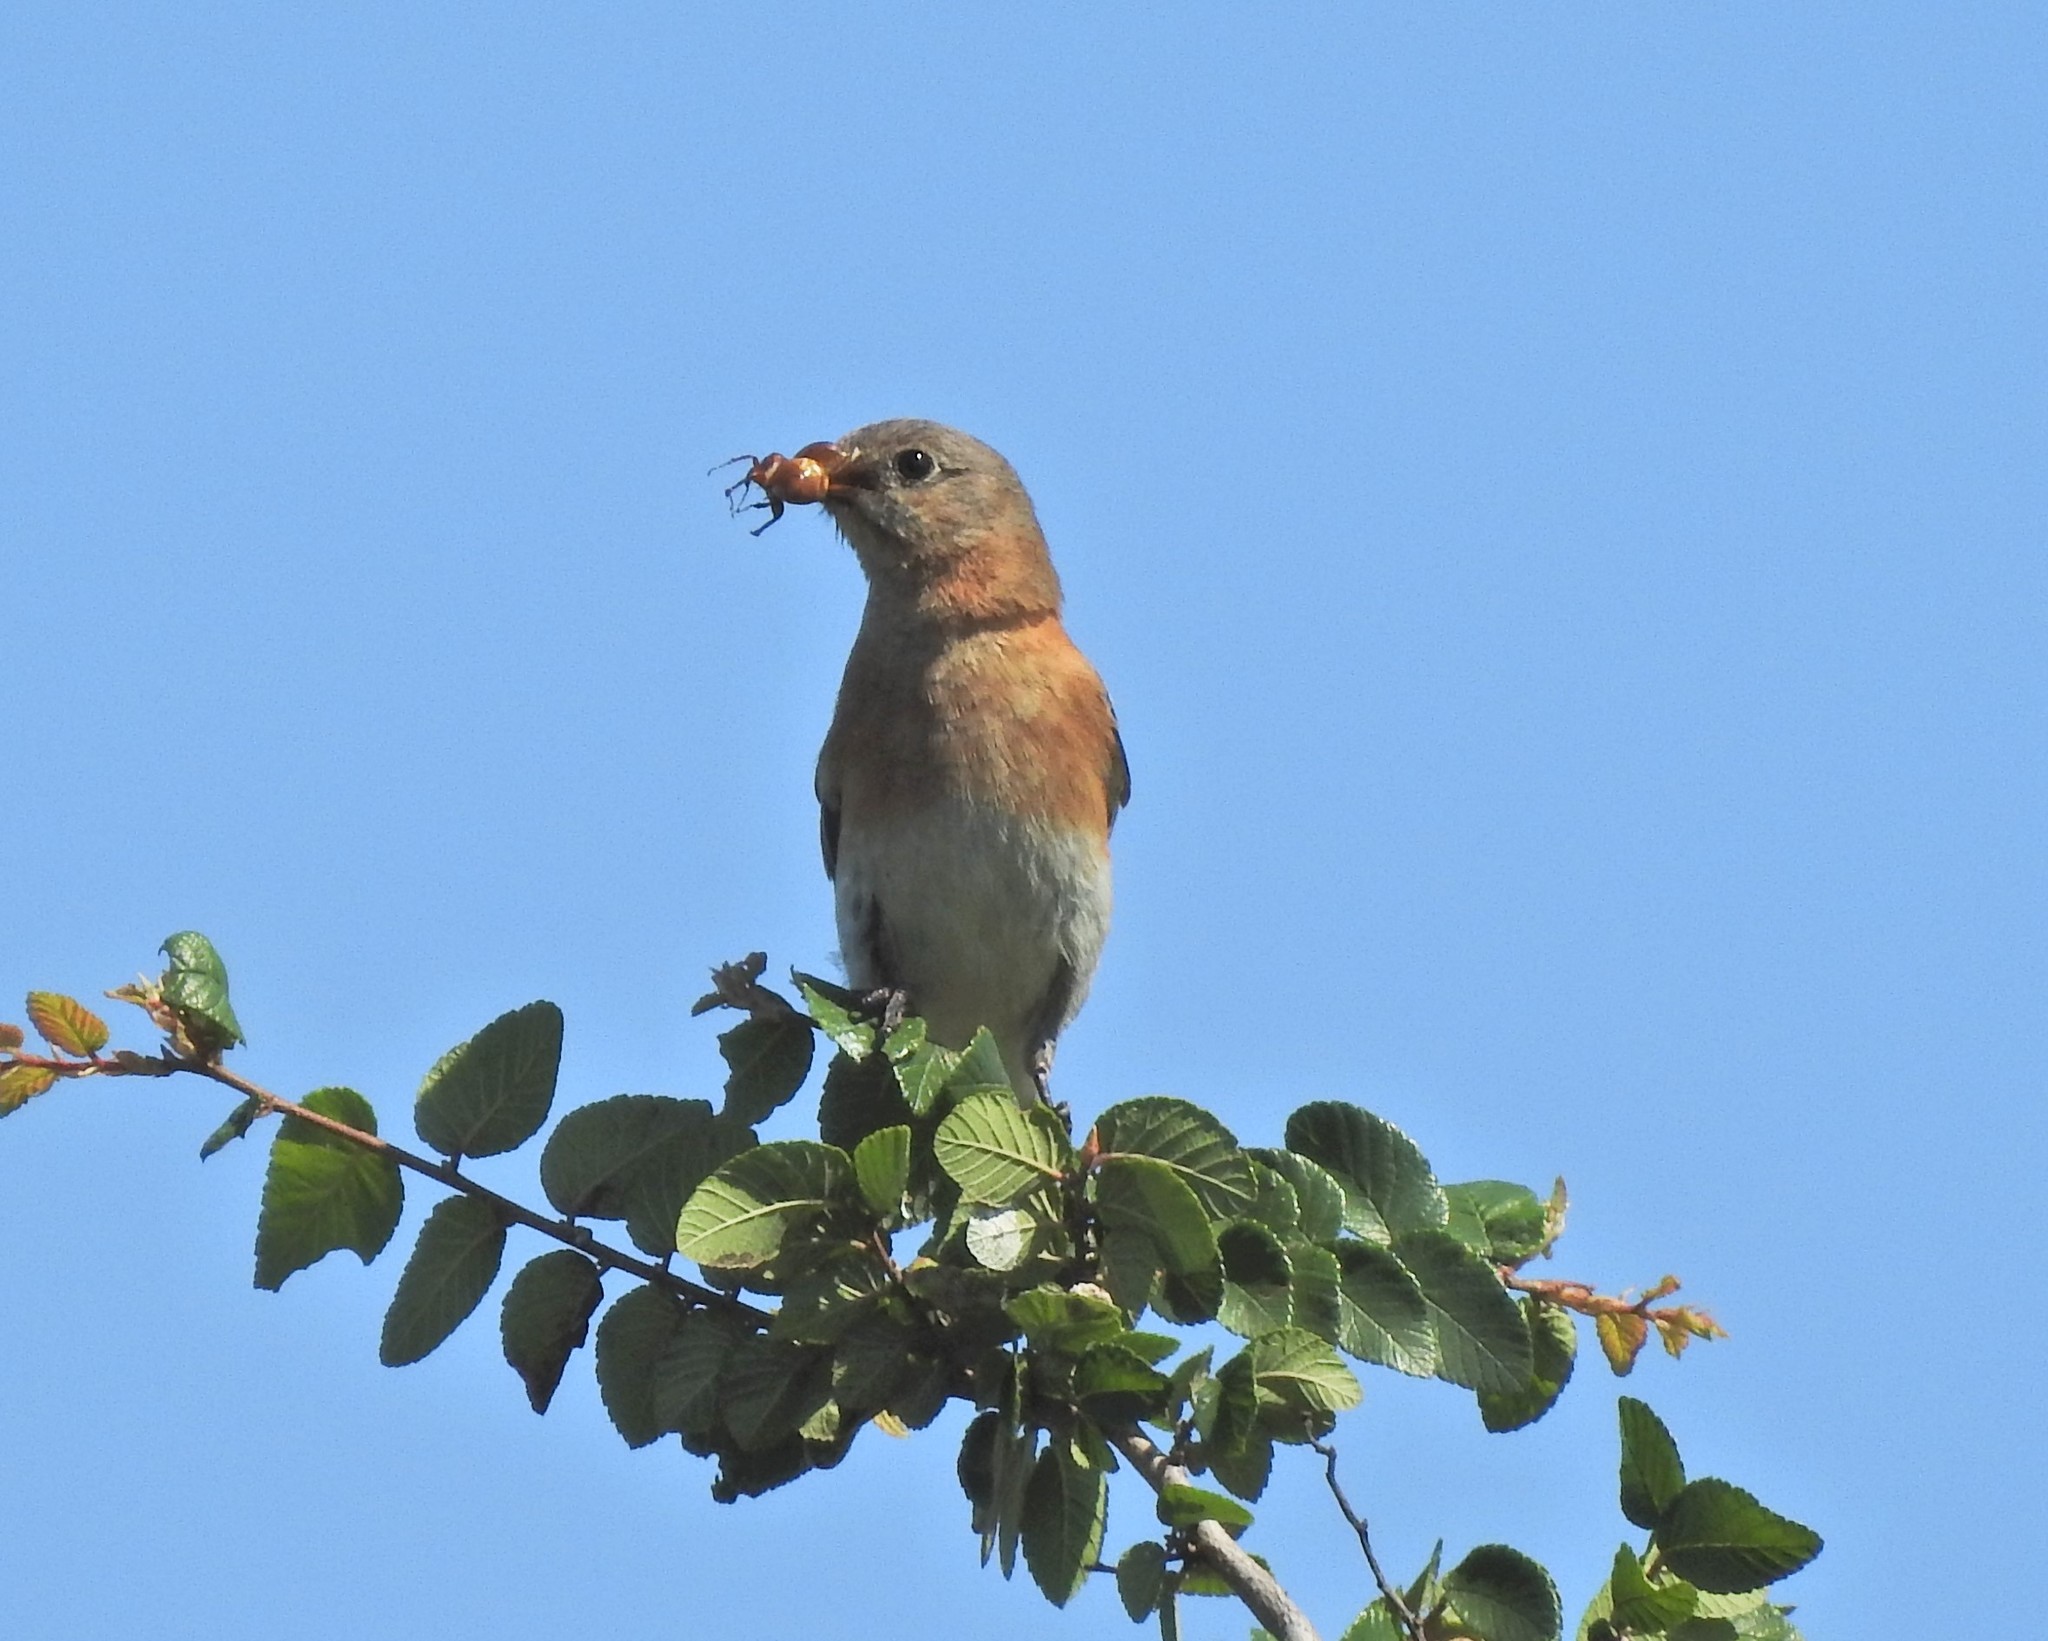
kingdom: Animalia
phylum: Chordata
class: Aves
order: Passeriformes
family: Turdidae
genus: Sialia
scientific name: Sialia sialis
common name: Eastern bluebird
